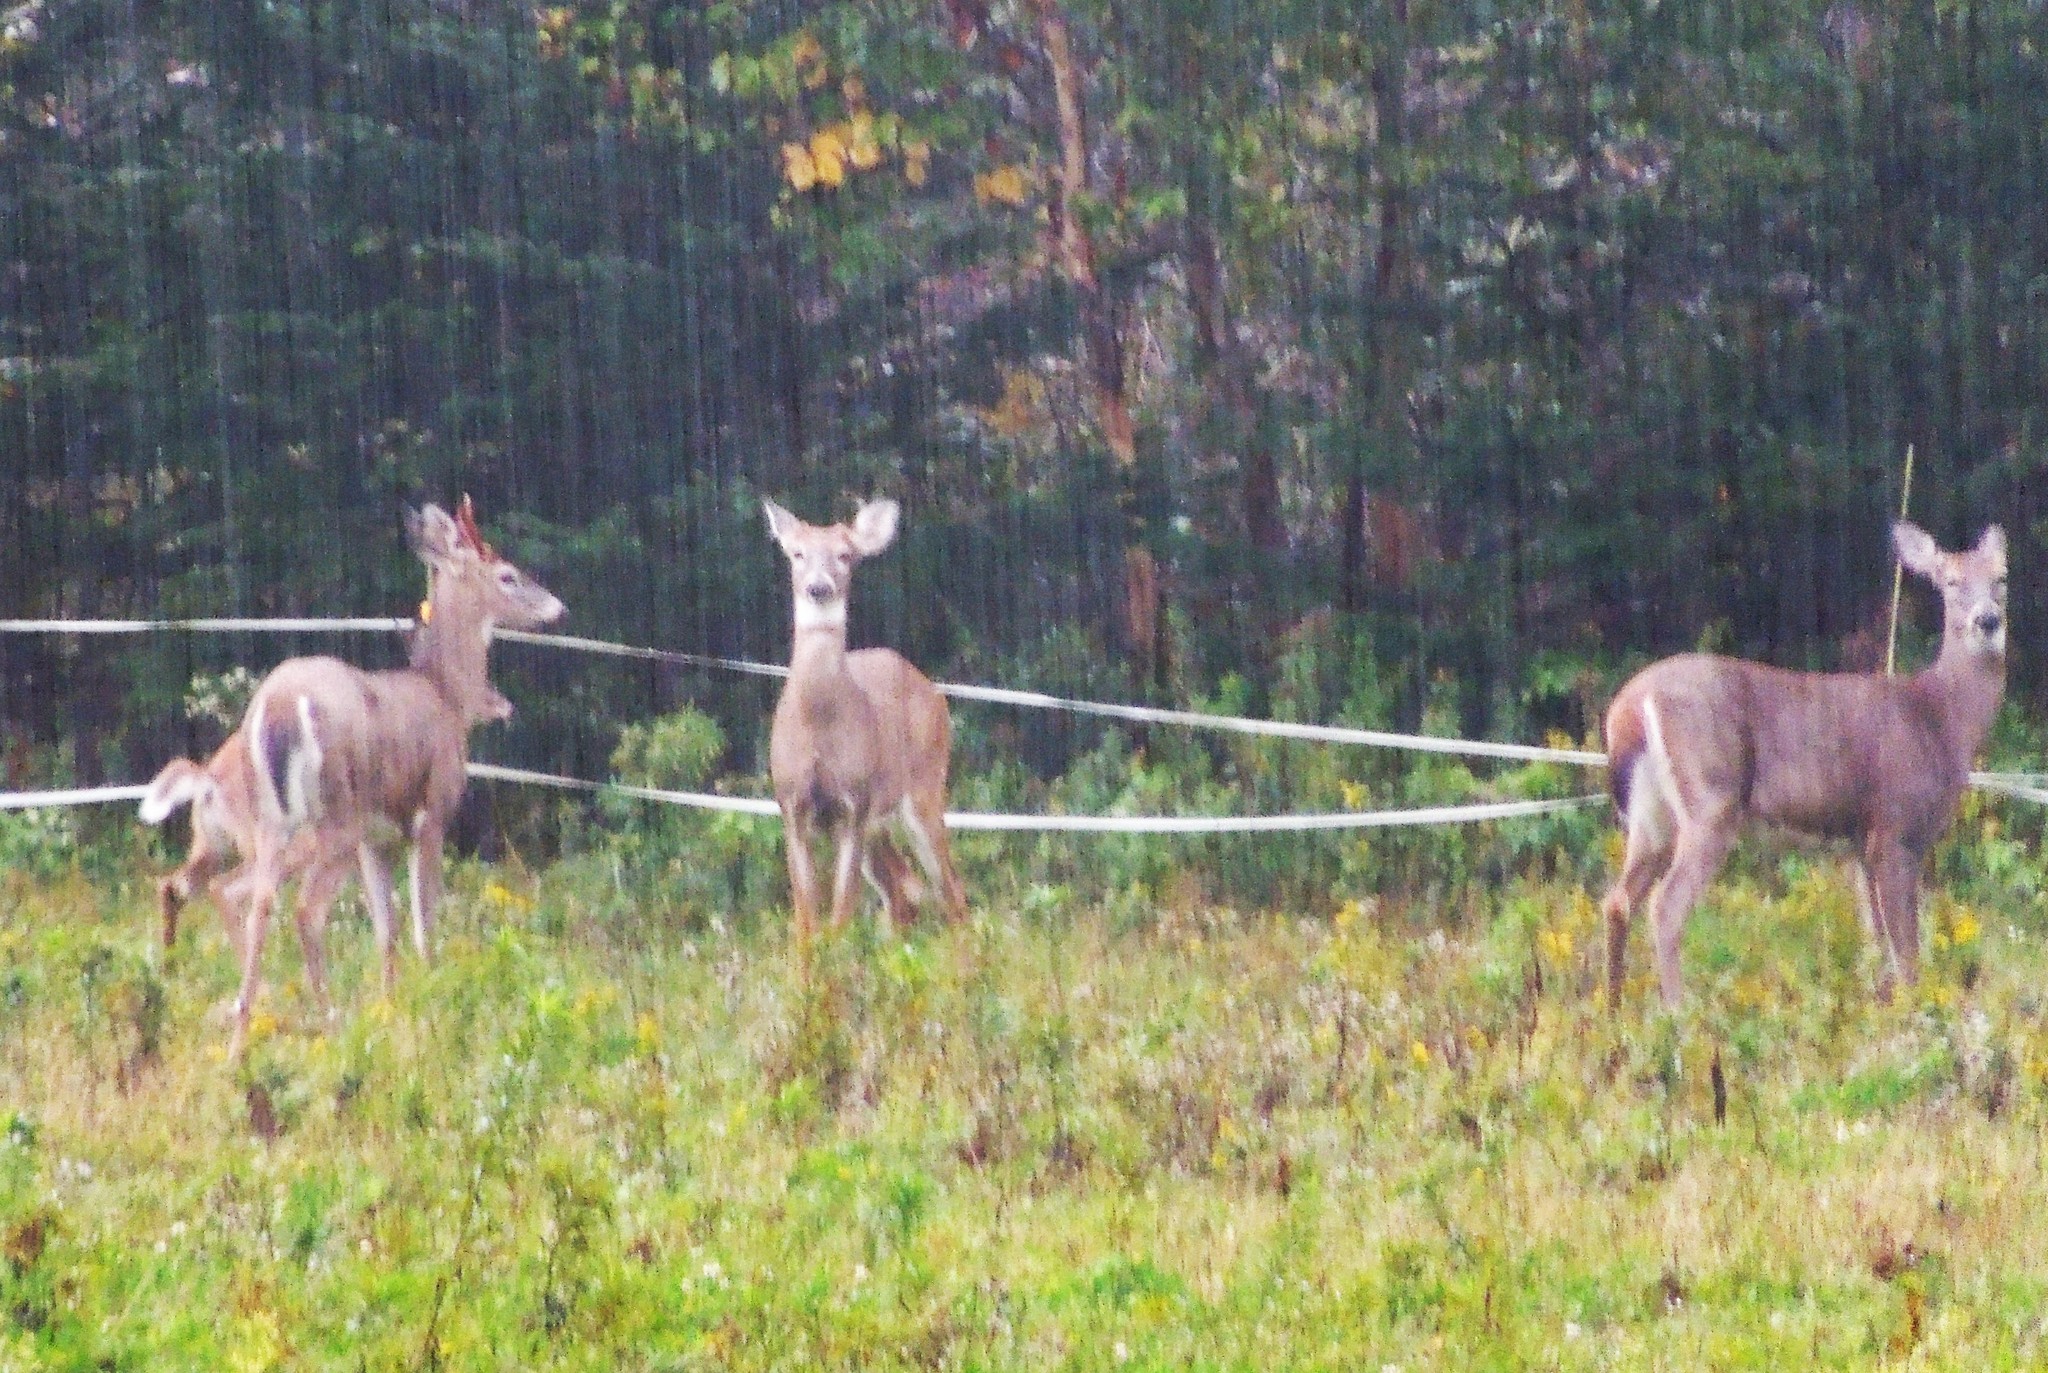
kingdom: Animalia
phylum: Chordata
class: Mammalia
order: Artiodactyla
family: Cervidae
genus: Odocoileus
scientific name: Odocoileus virginianus
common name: White-tailed deer
